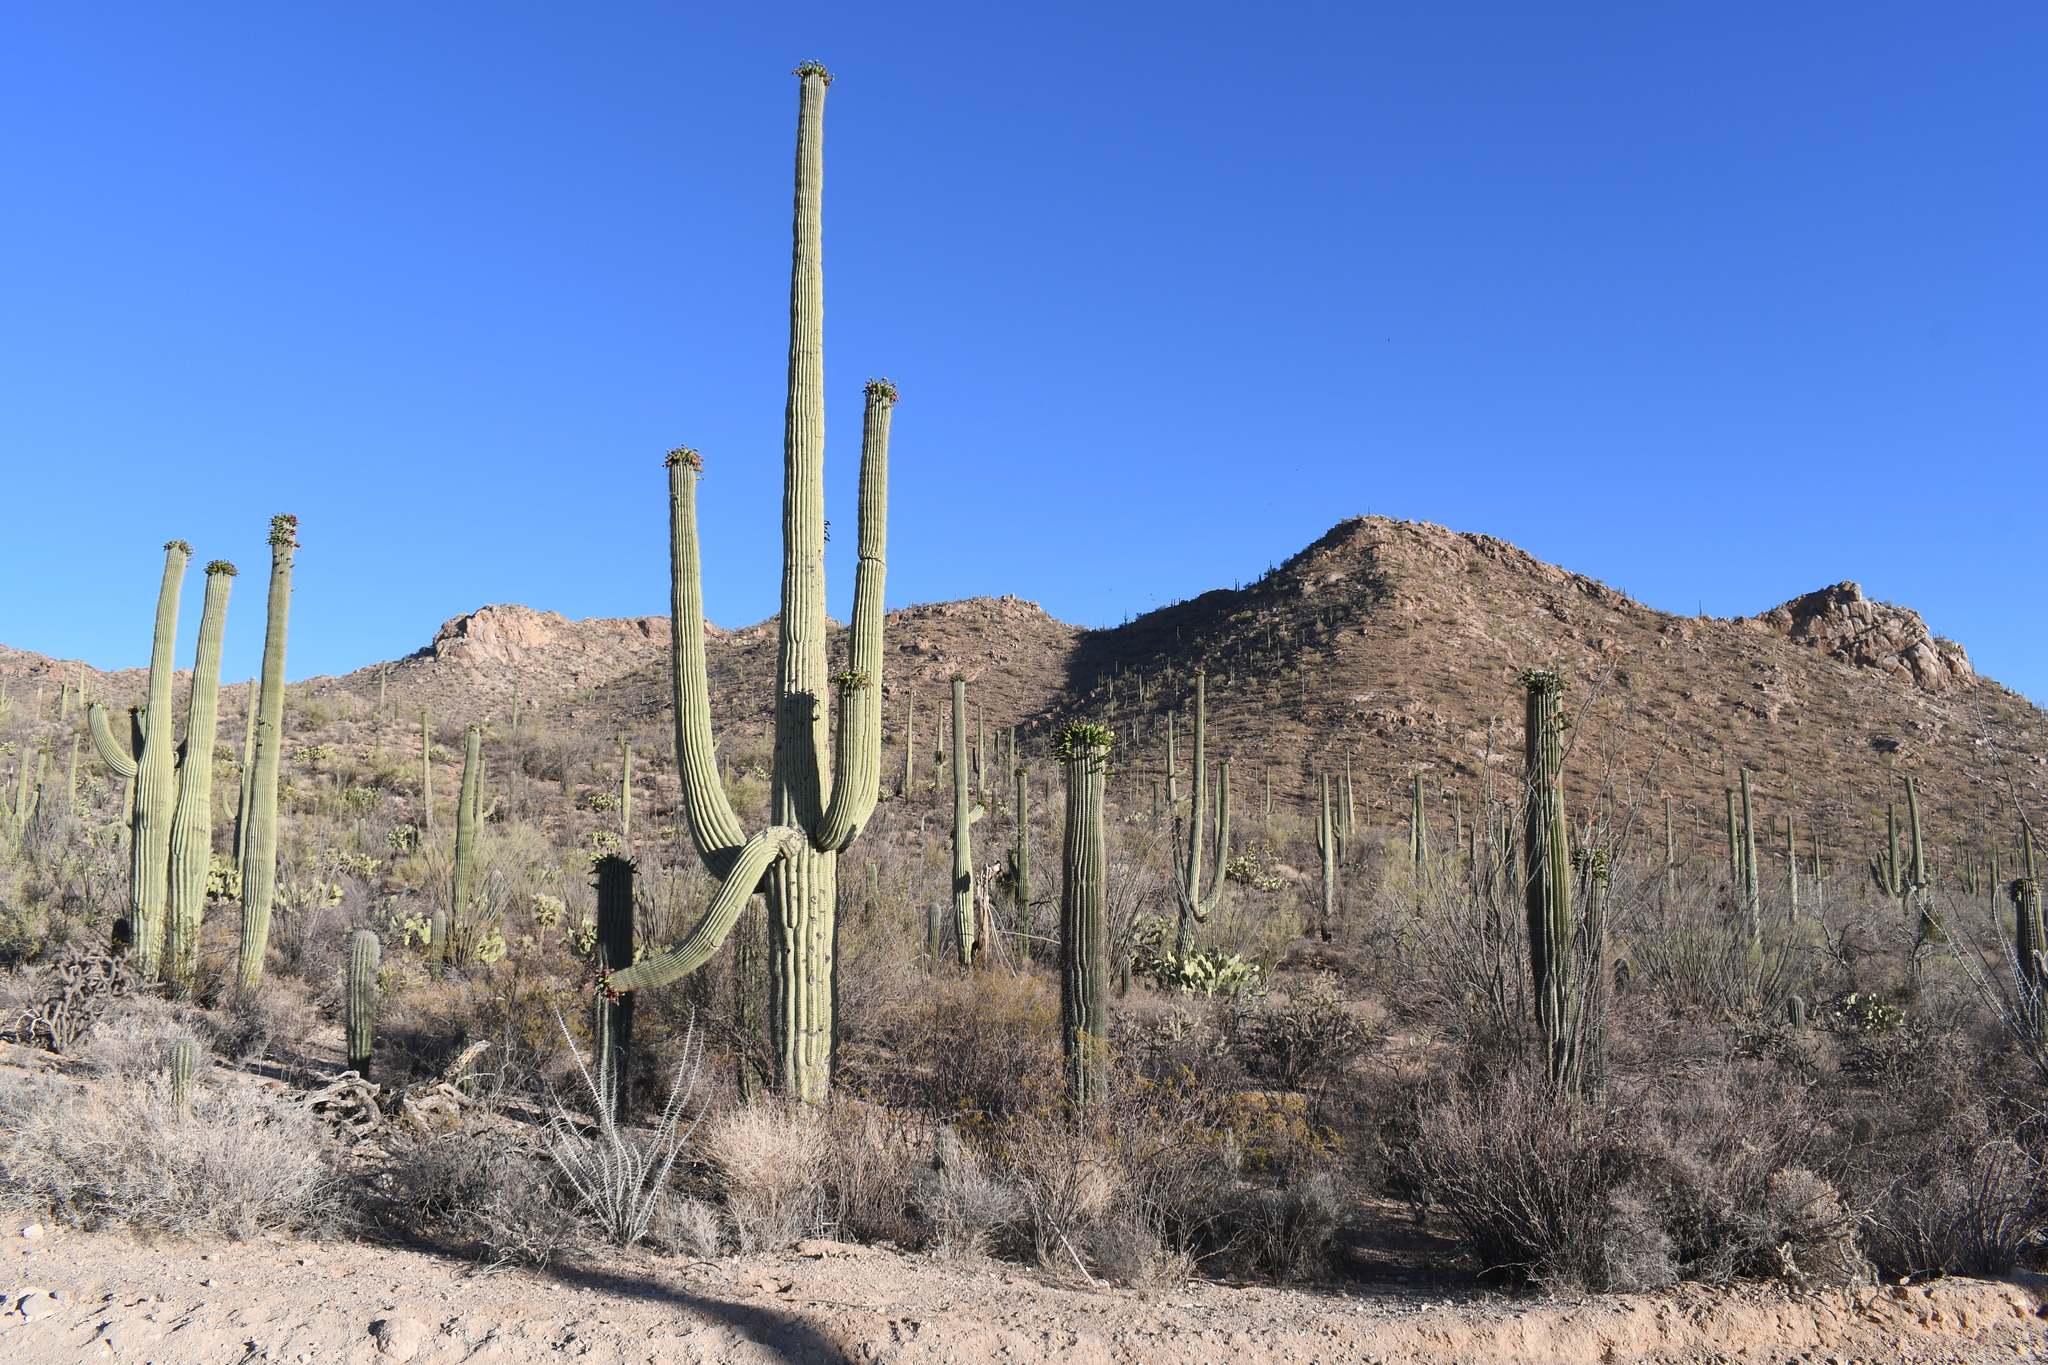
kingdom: Plantae
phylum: Tracheophyta
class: Magnoliopsida
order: Caryophyllales
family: Cactaceae
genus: Carnegiea
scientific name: Carnegiea gigantea
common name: Saguaro
